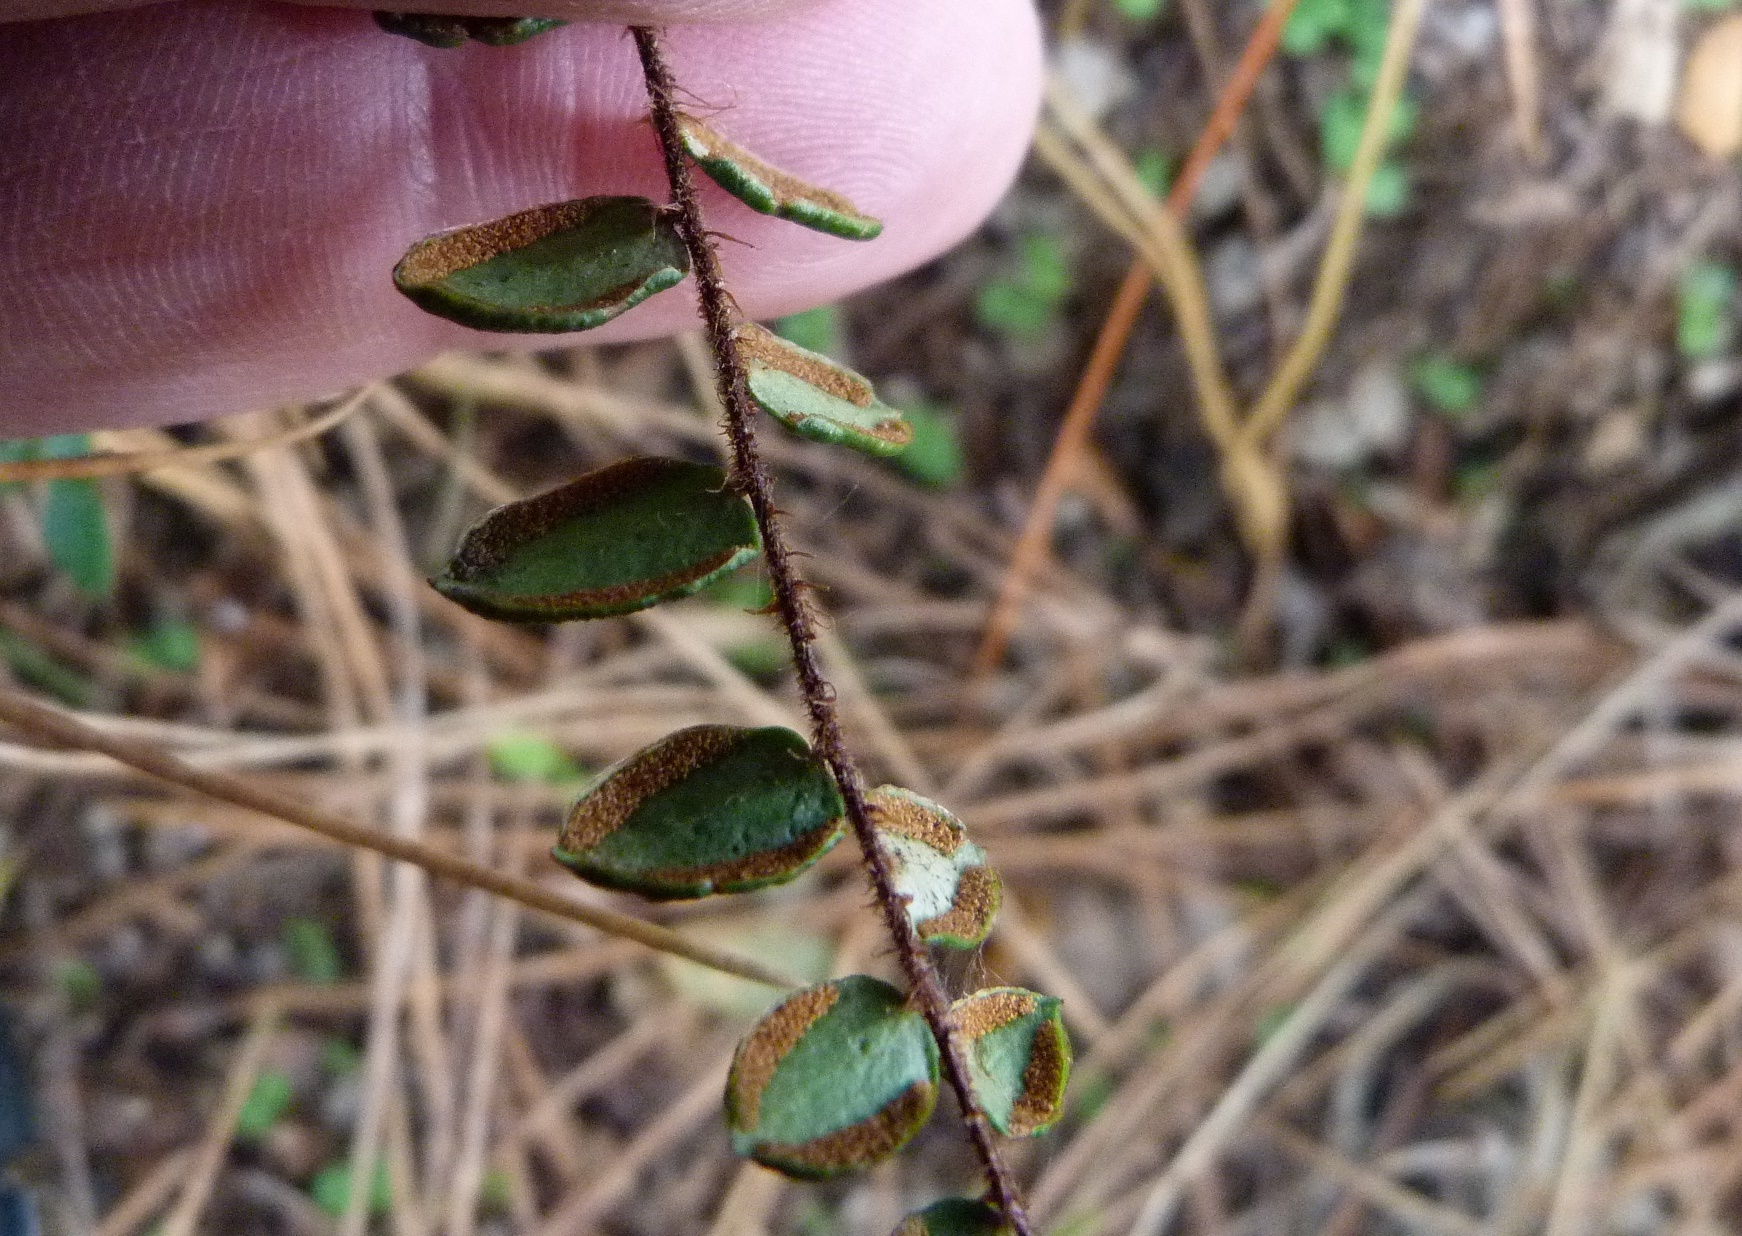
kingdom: Plantae
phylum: Tracheophyta
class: Polypodiopsida
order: Polypodiales
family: Pteridaceae
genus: Pellaea
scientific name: Pellaea rotundifolia
